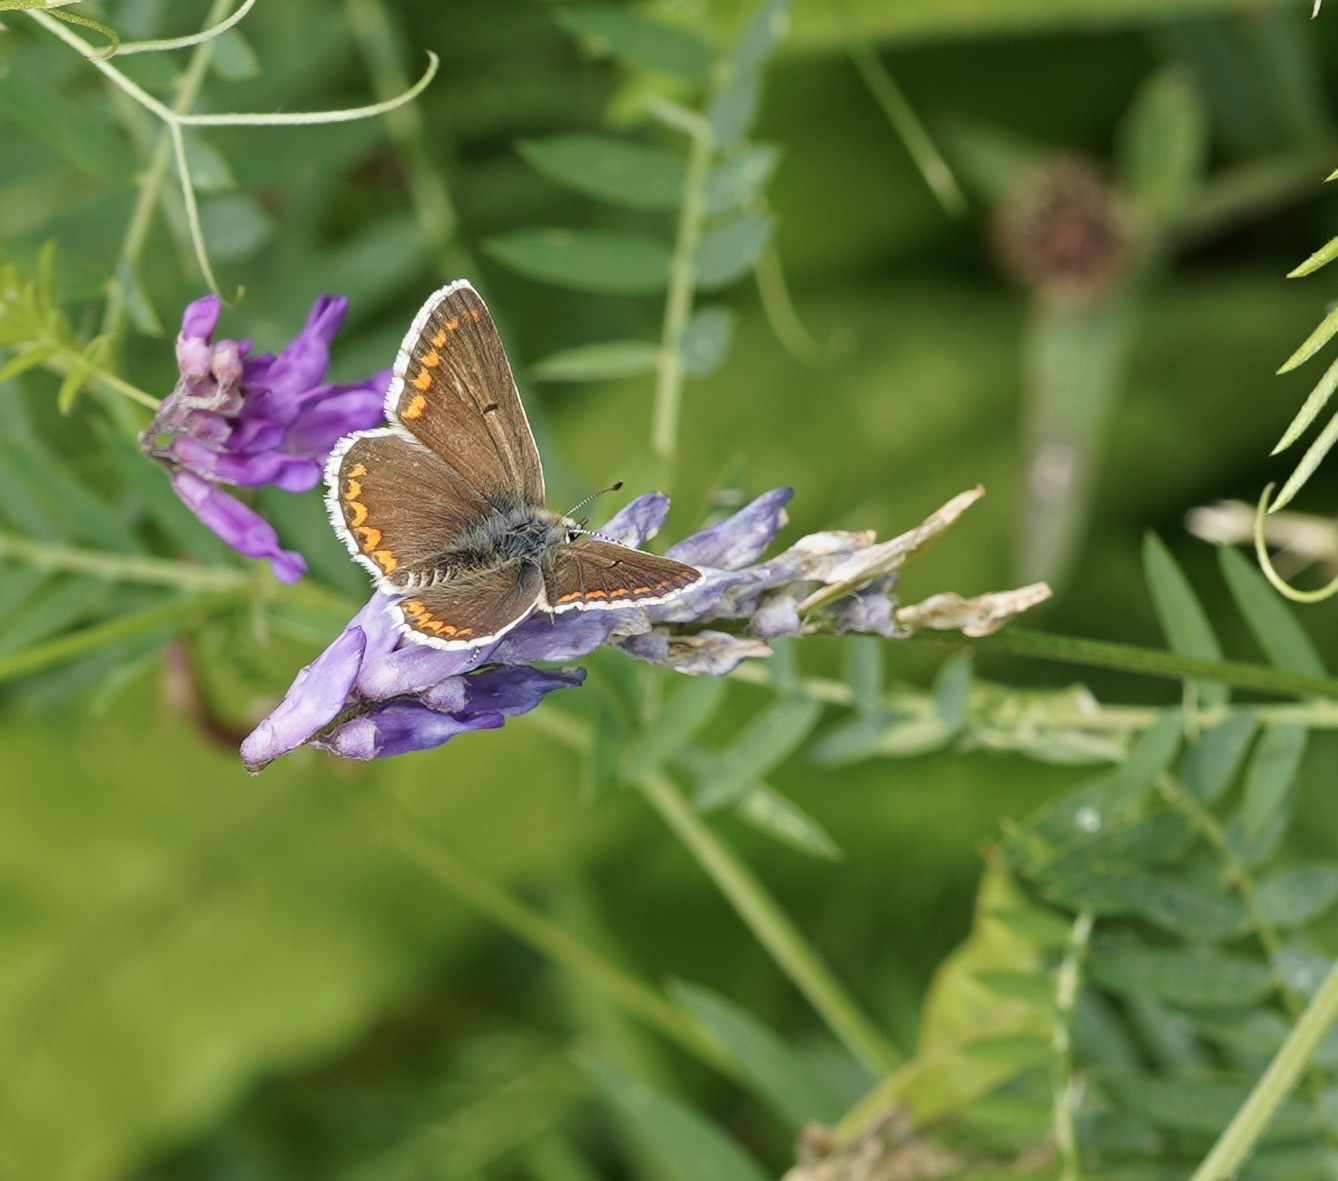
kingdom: Animalia
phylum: Arthropoda
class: Insecta
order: Lepidoptera
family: Lycaenidae
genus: Aricia
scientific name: Aricia agestis
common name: Brown argus
